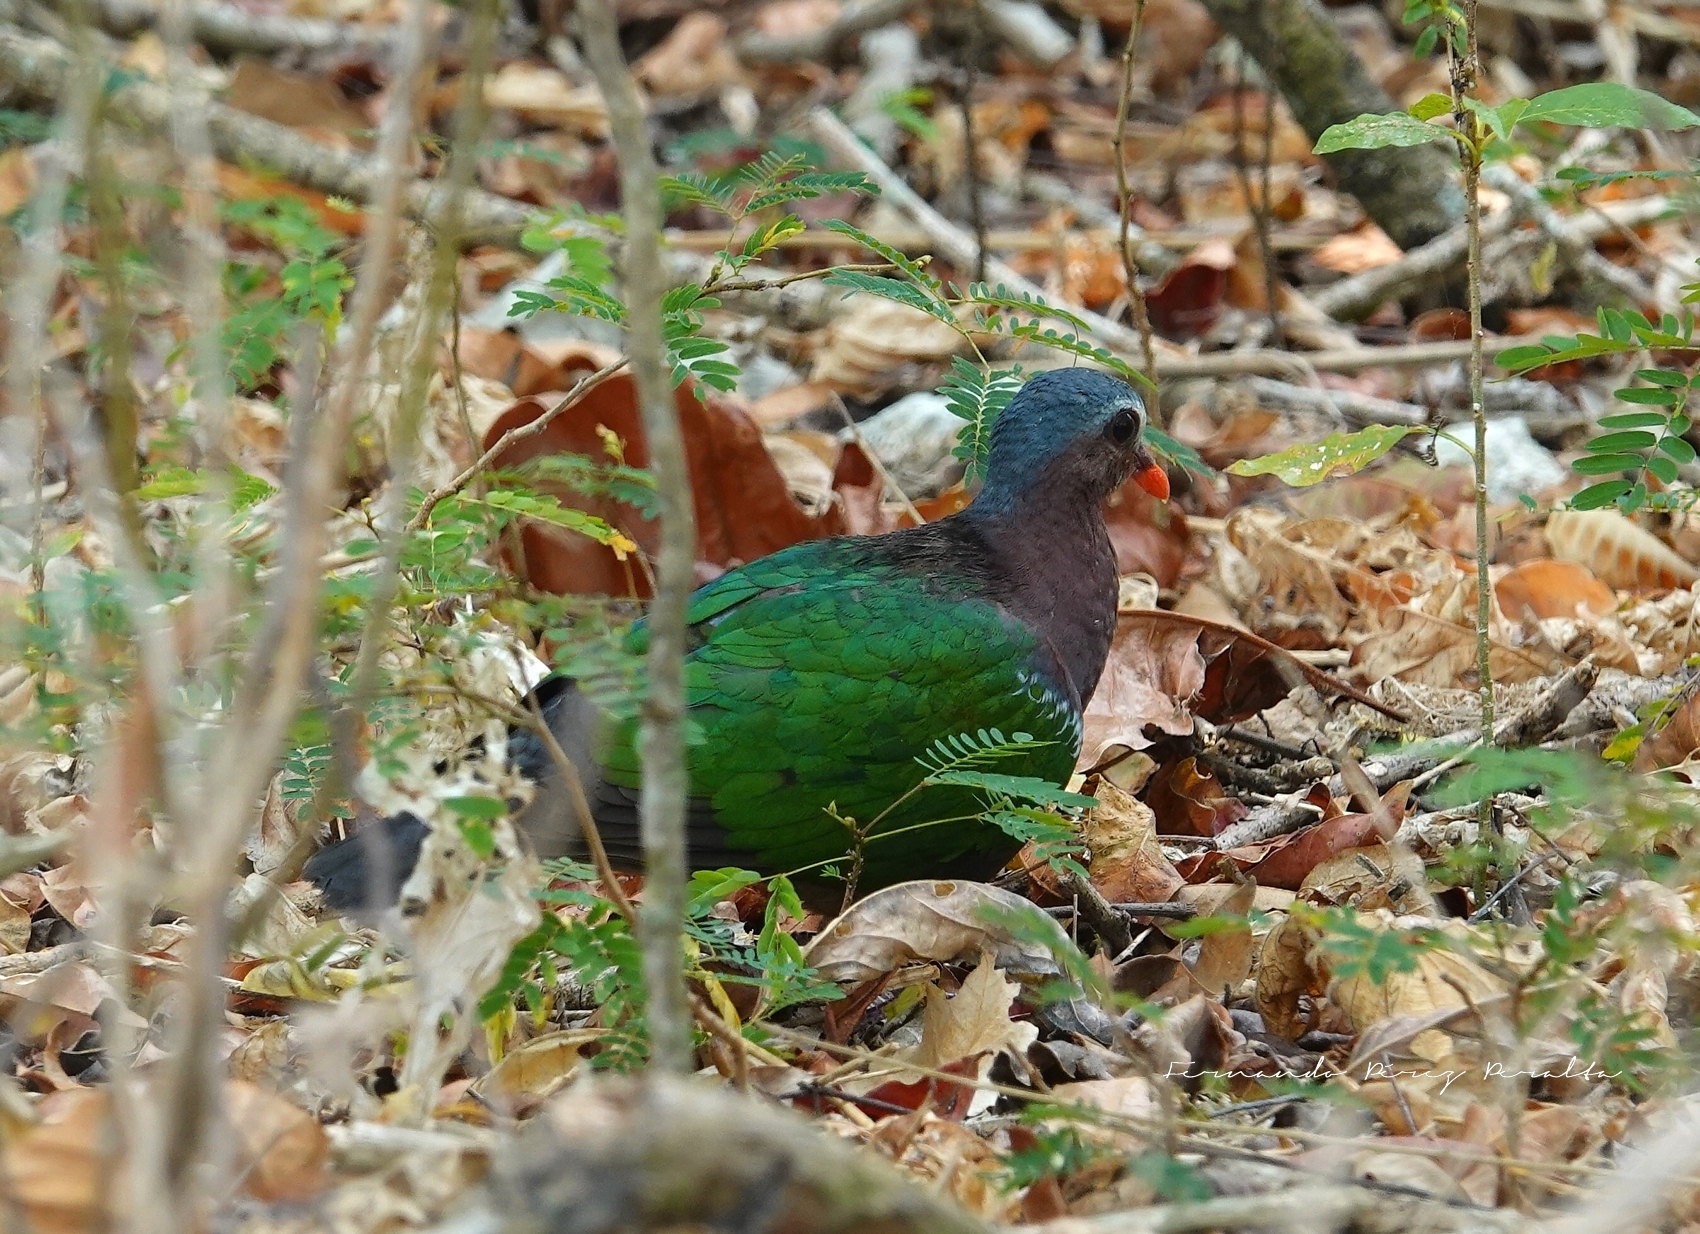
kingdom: Animalia
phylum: Chordata
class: Aves
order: Columbiformes
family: Columbidae
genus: Chalcophaps
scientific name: Chalcophaps indica
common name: Common emerald dove
